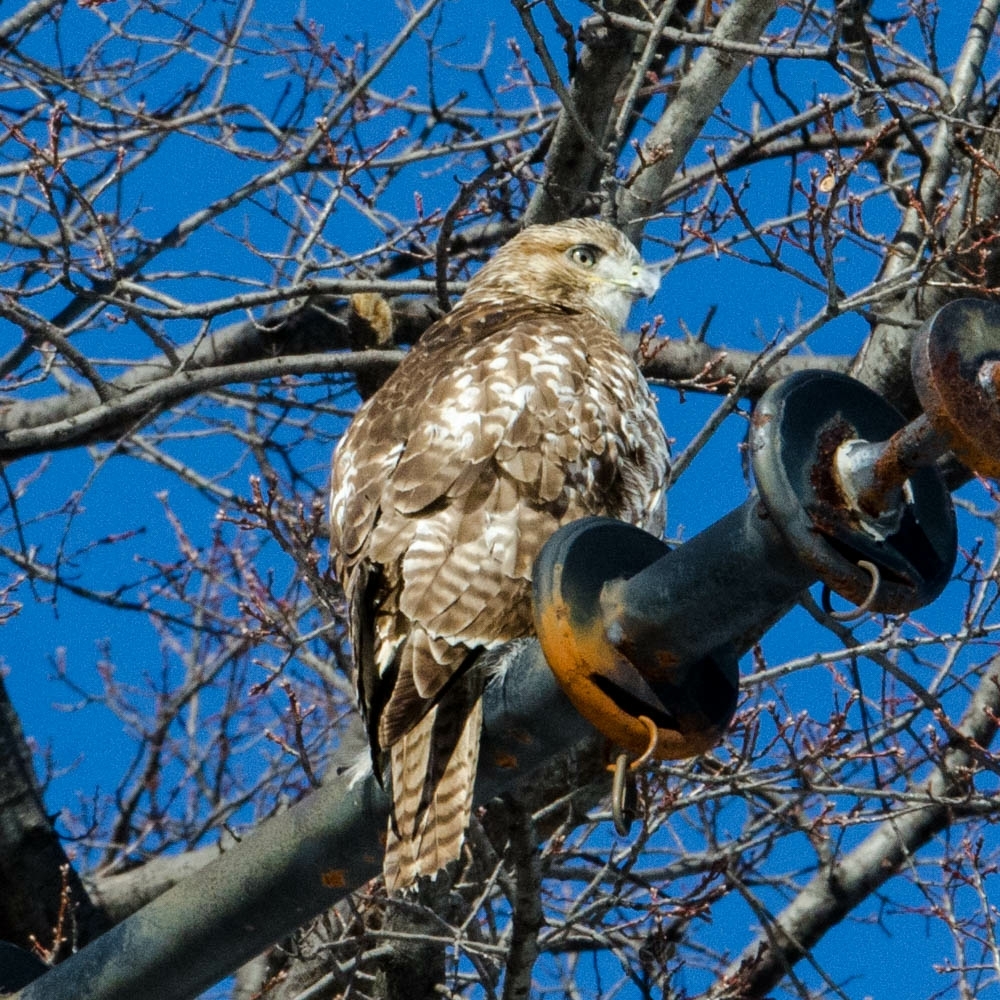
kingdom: Animalia
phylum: Chordata
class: Aves
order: Accipitriformes
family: Accipitridae
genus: Buteo
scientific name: Buteo jamaicensis
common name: Red-tailed hawk
